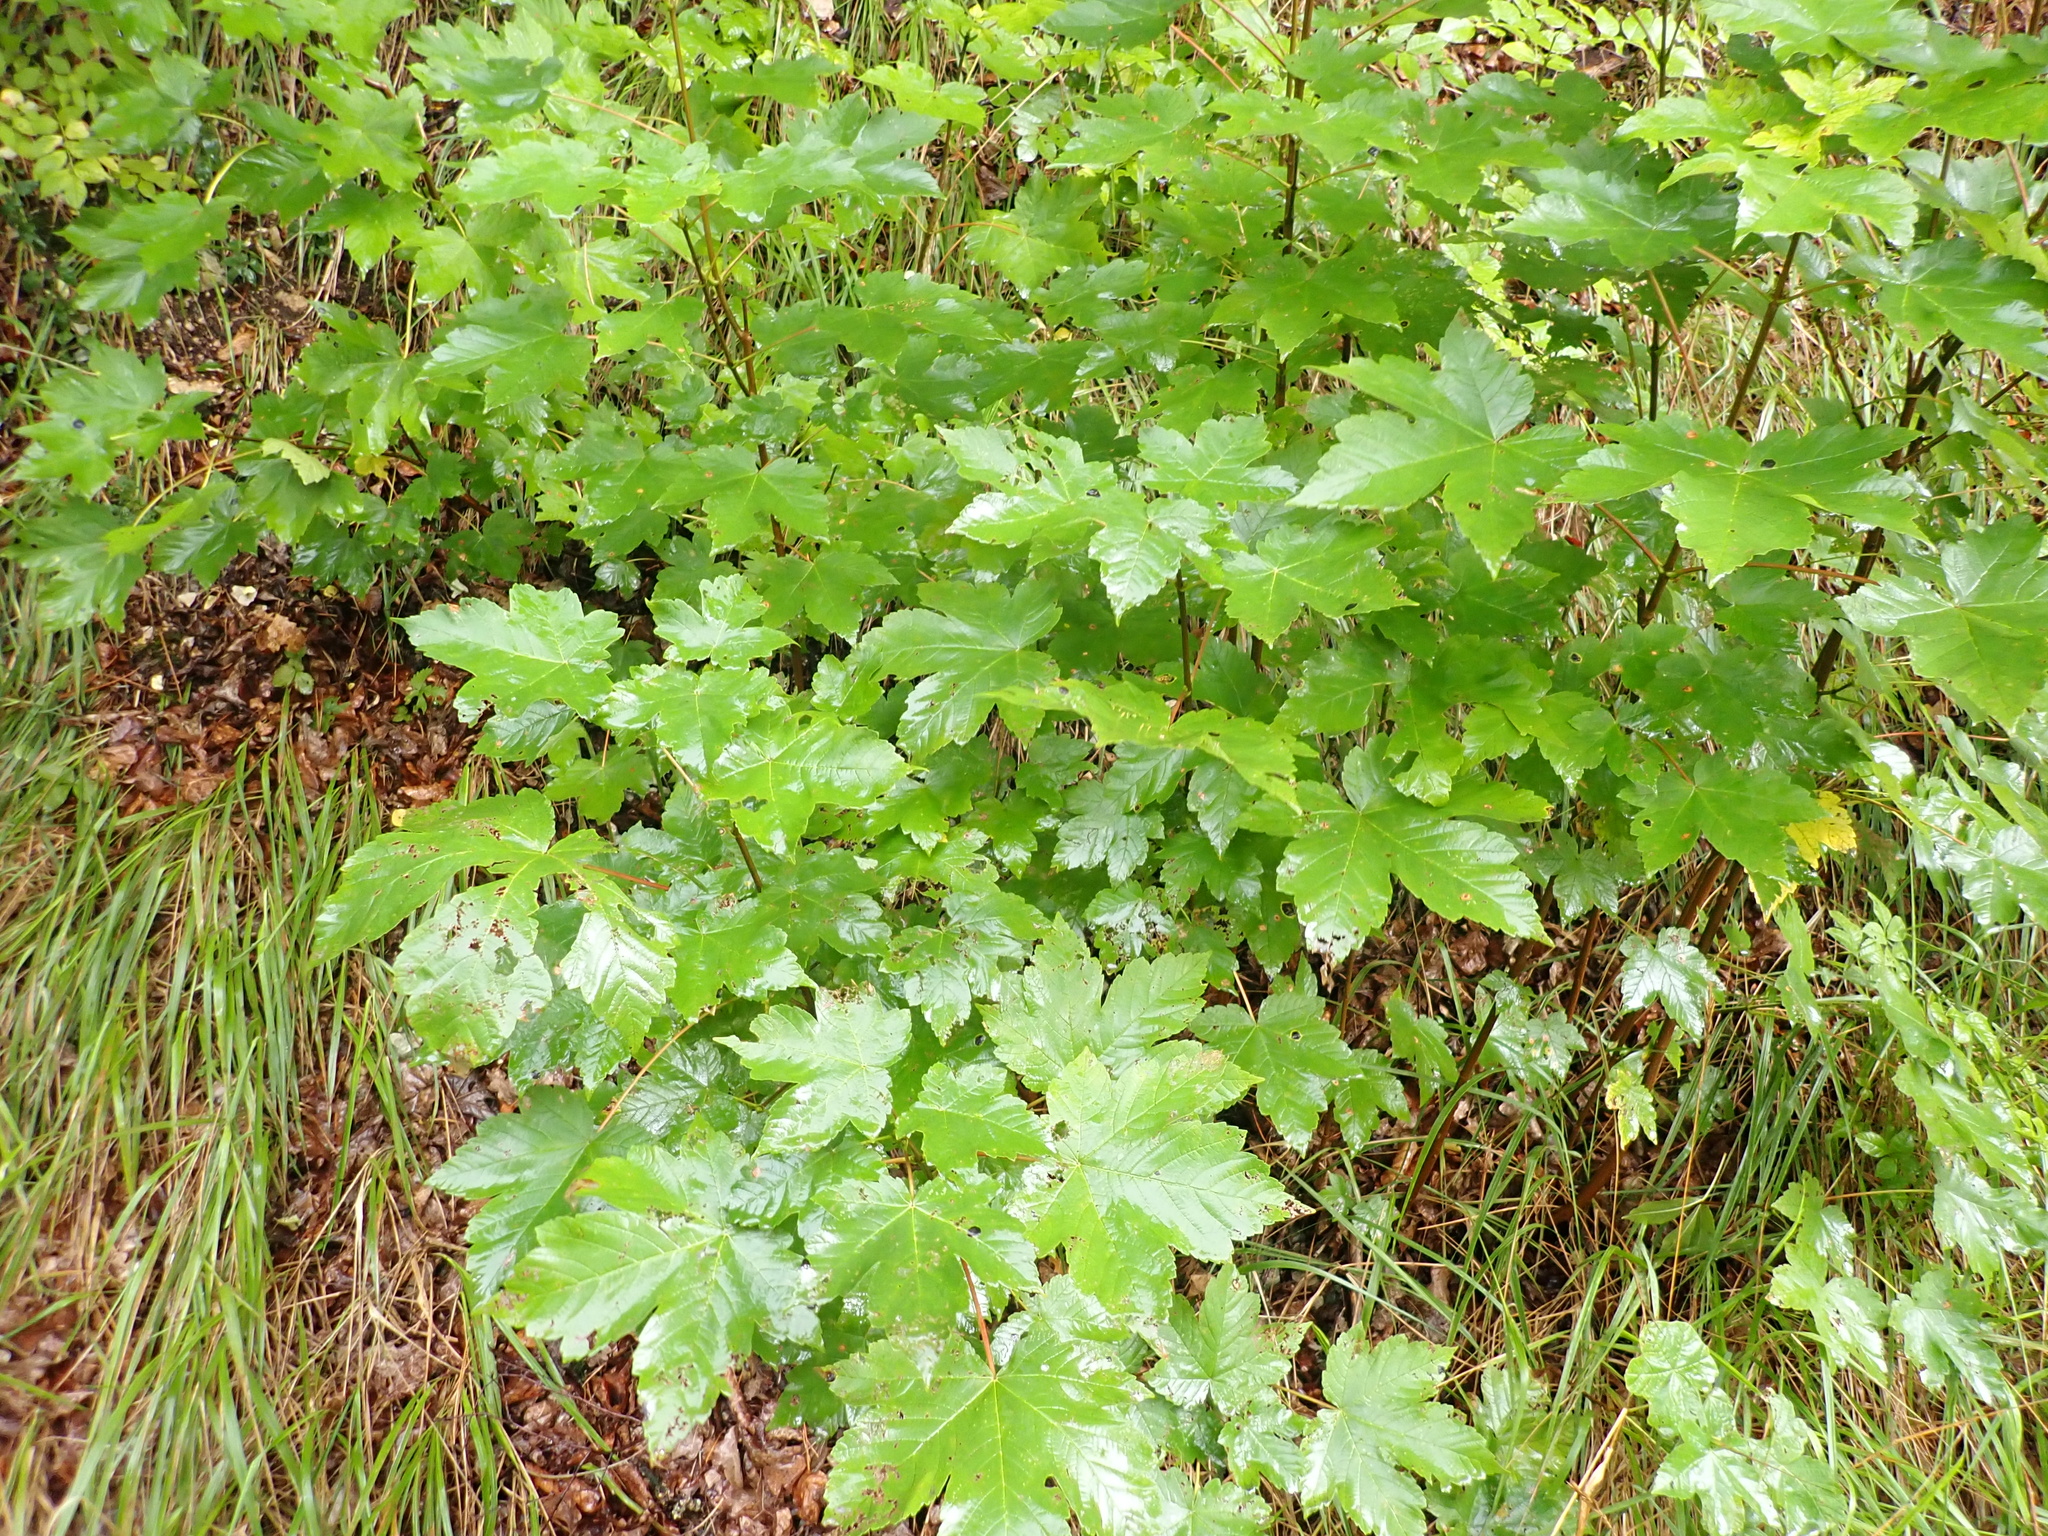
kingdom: Plantae
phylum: Tracheophyta
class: Magnoliopsida
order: Sapindales
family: Sapindaceae
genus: Acer
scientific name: Acer pseudoplatanus
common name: Sycamore
